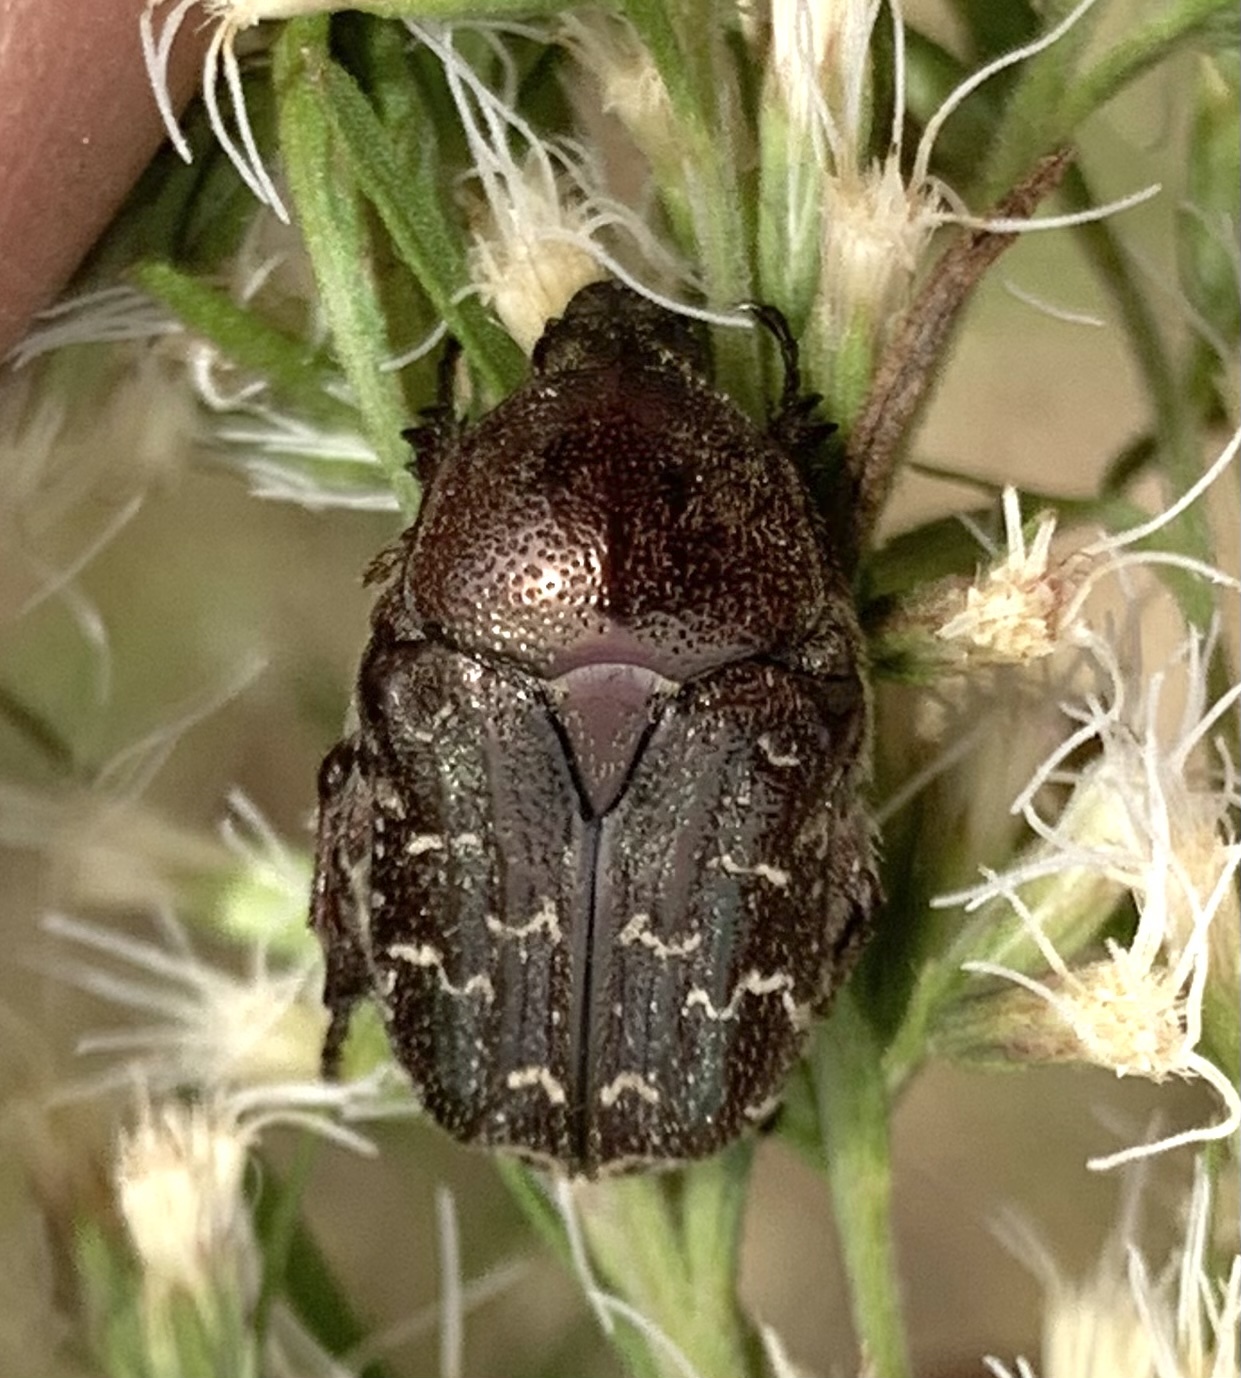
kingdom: Animalia
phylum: Arthropoda
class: Insecta
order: Coleoptera
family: Scarabaeidae
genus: Euphoria
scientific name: Euphoria sepulcralis
